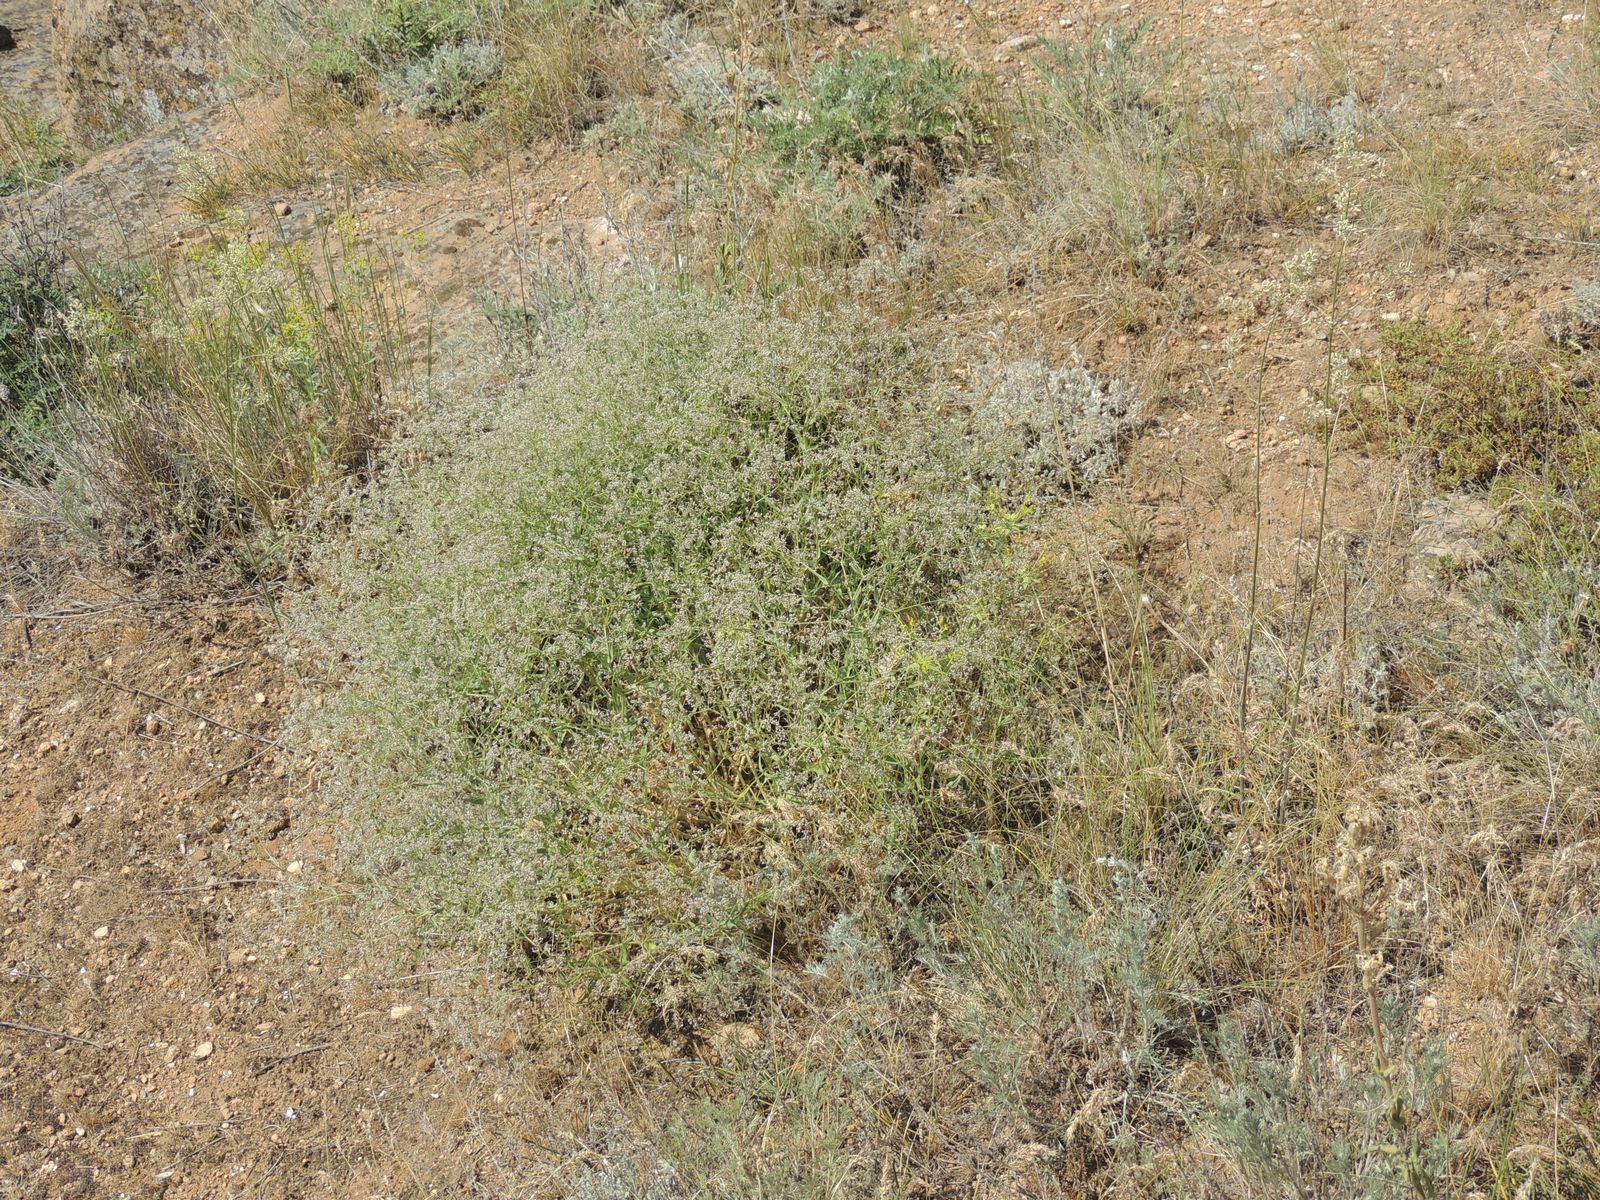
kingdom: Plantae
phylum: Tracheophyta
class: Magnoliopsida
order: Caryophyllales
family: Caryophyllaceae
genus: Gypsophila
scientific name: Gypsophila paniculata
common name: Baby's-breath
